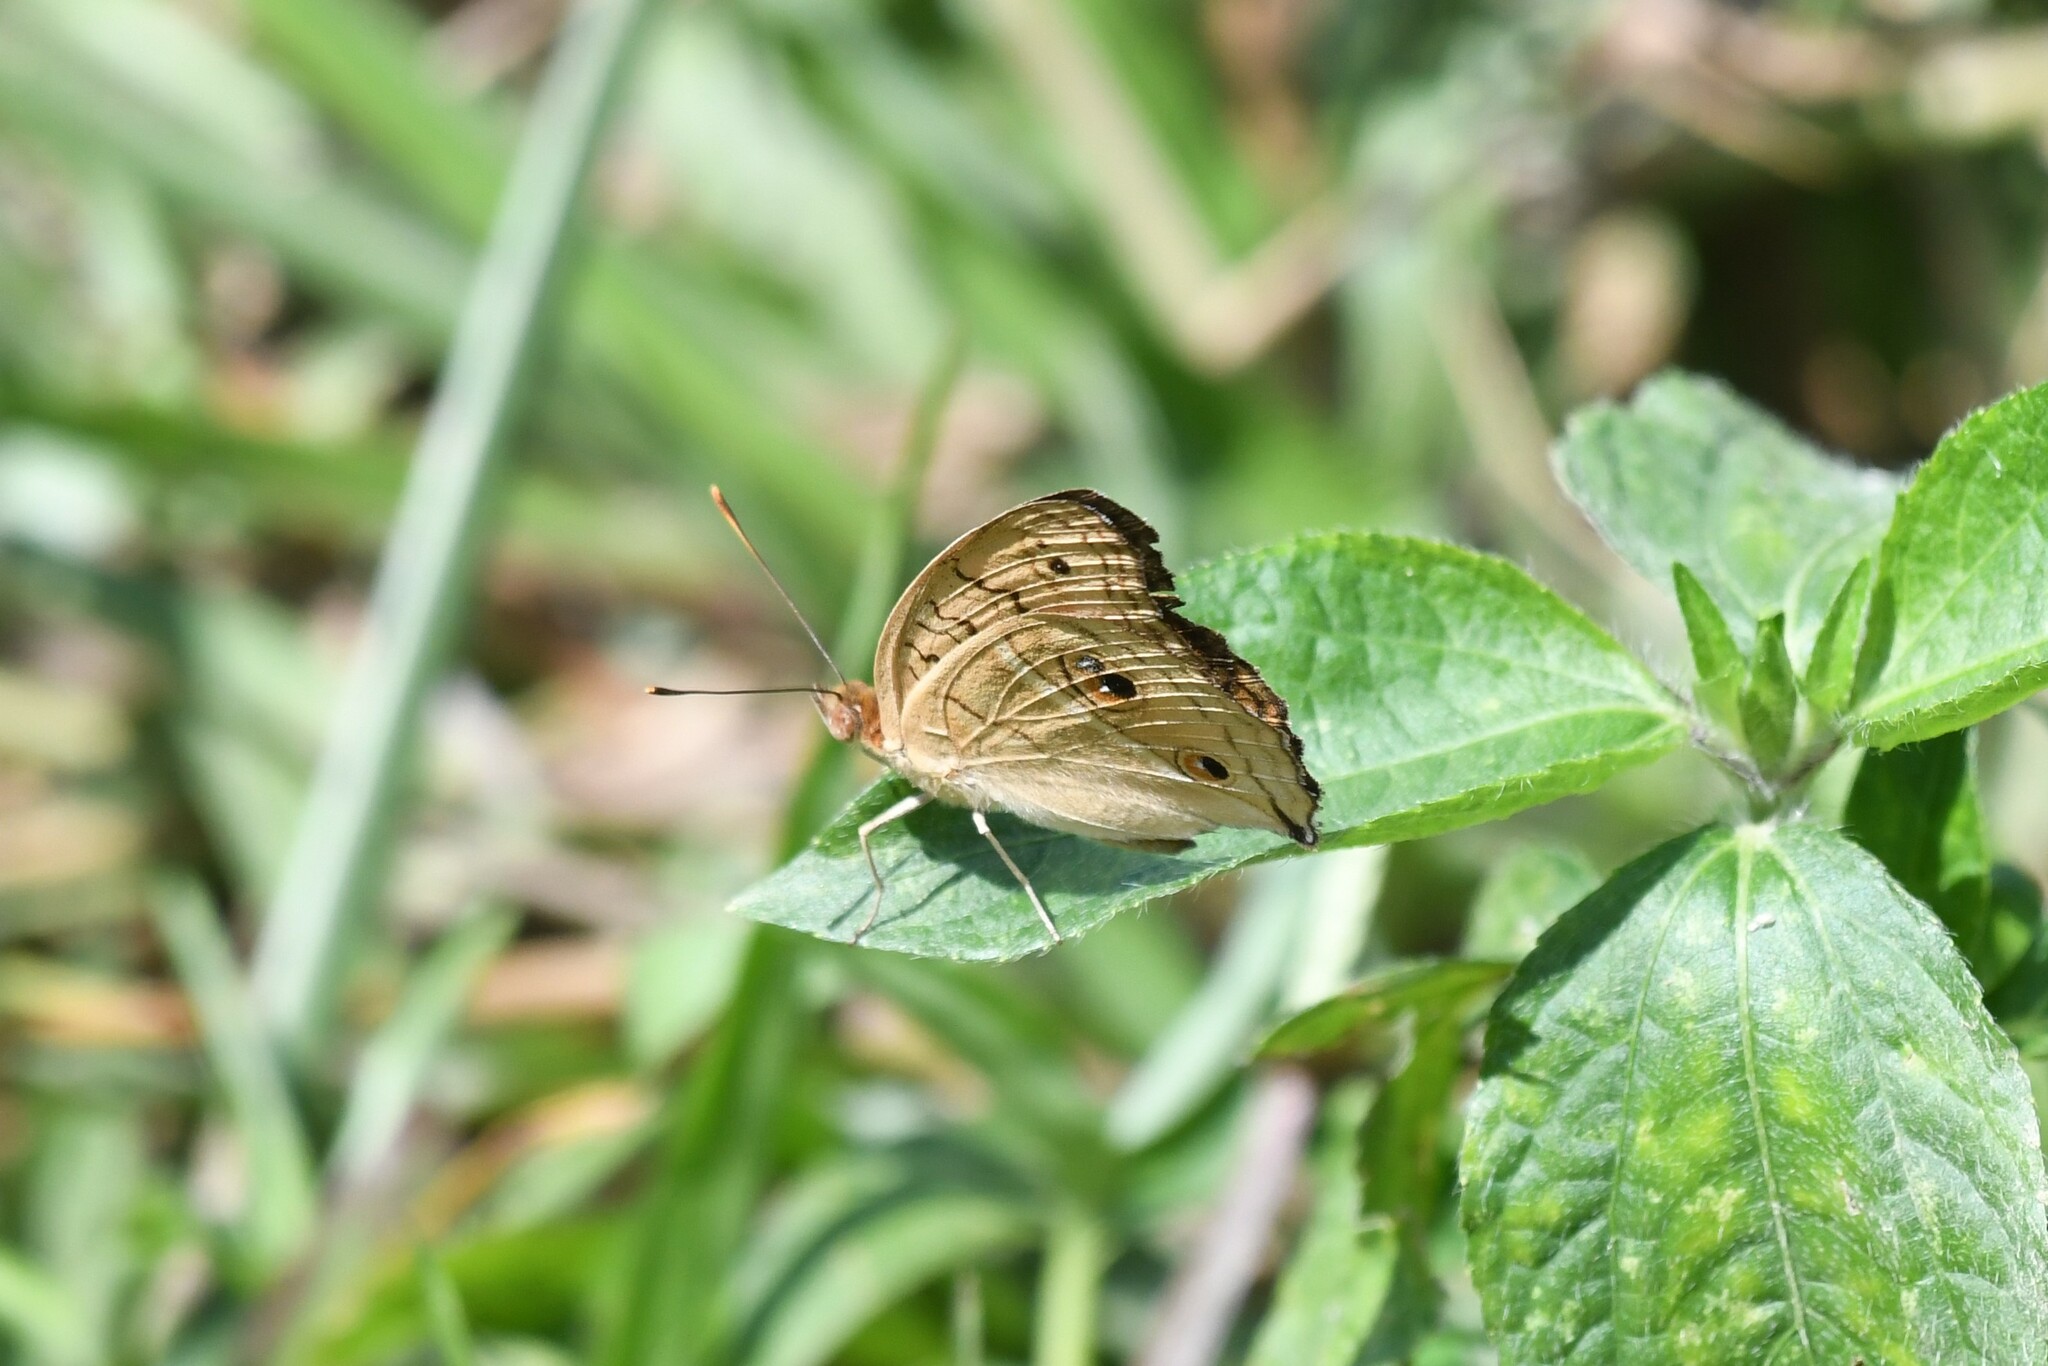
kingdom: Animalia
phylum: Arthropoda
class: Insecta
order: Lepidoptera
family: Nymphalidae
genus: Junonia
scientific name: Junonia almana
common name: Peacock pansy
